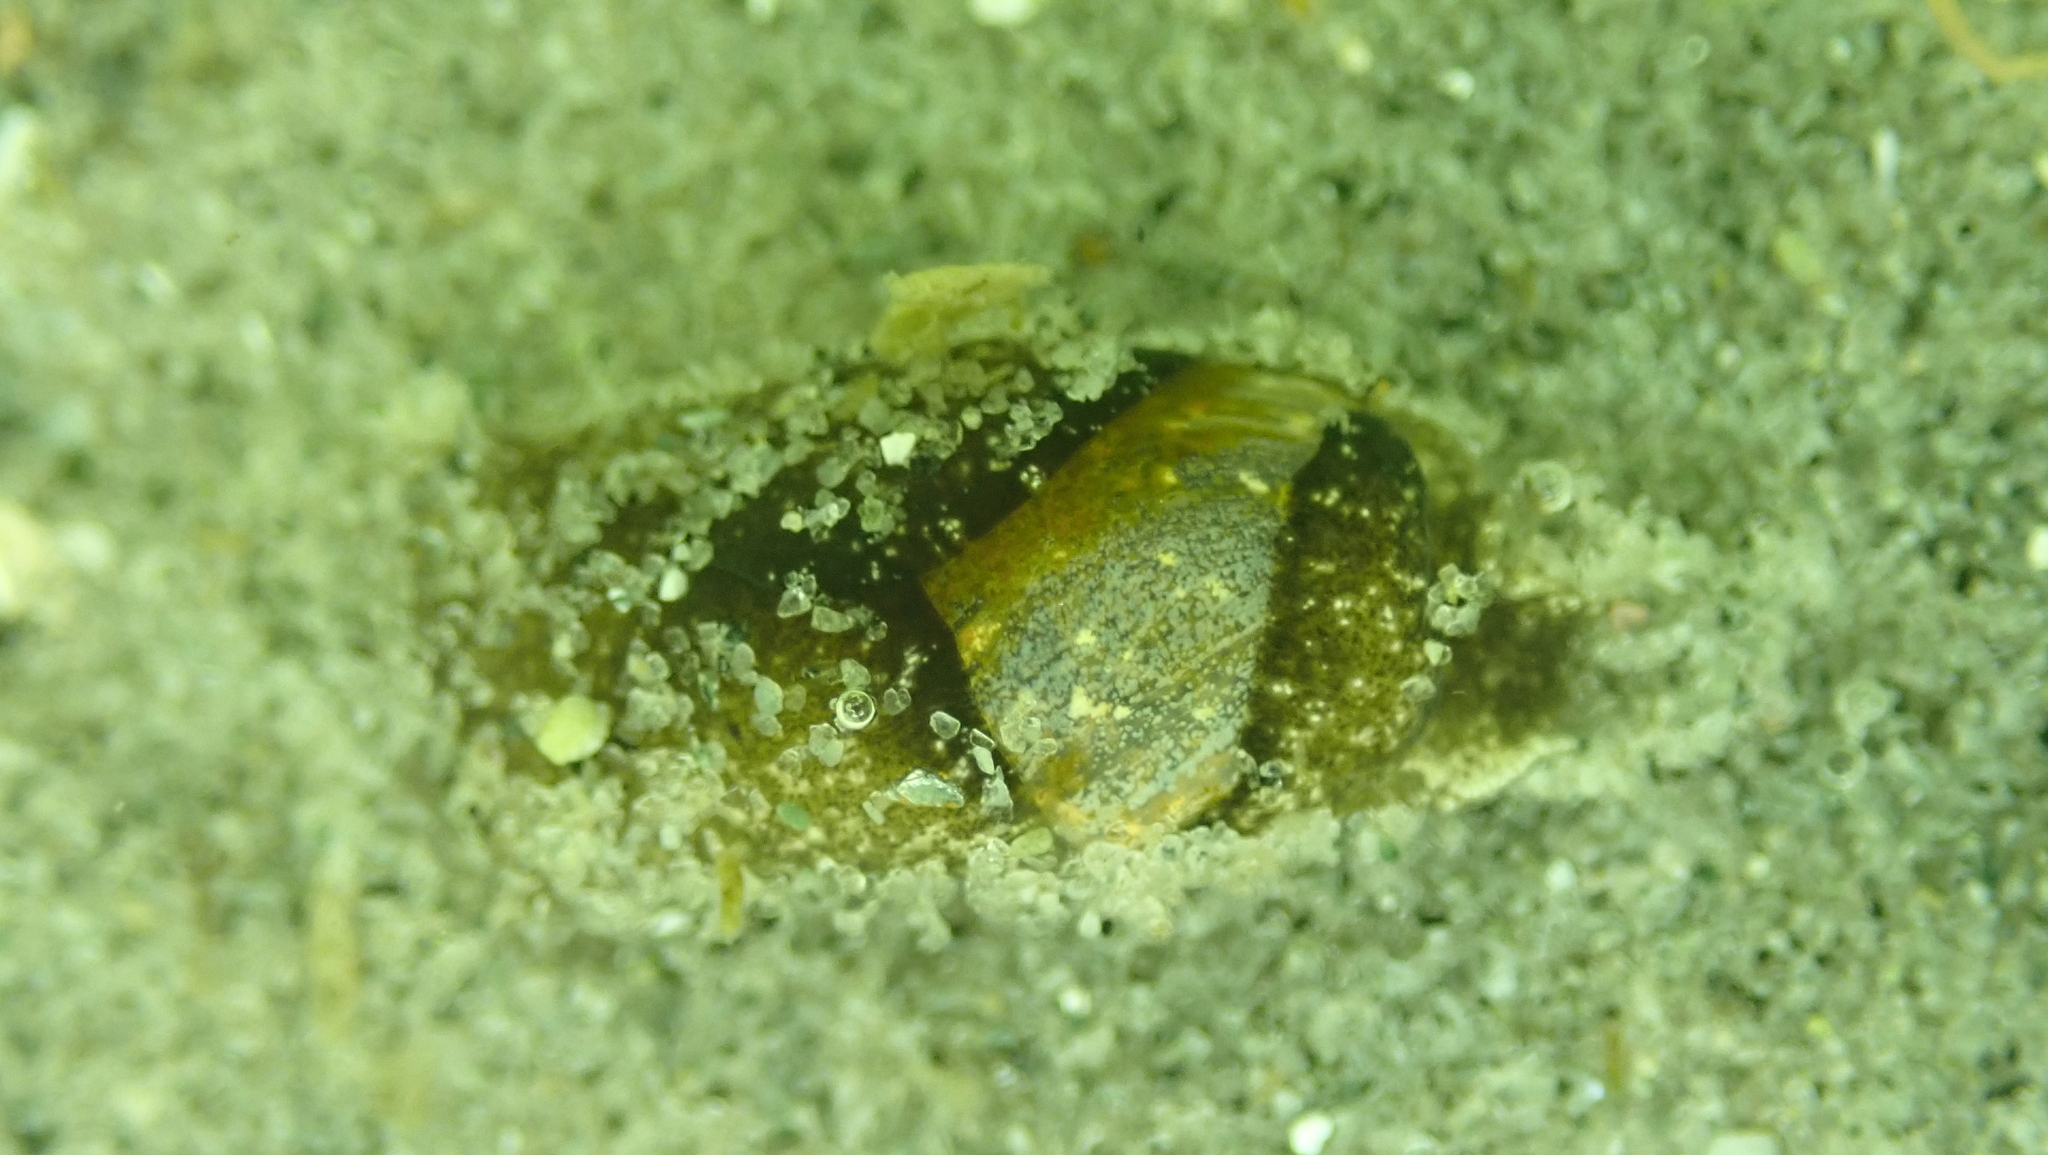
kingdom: Animalia
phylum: Mollusca
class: Gastropoda
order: Cephalaspidea
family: Haminoeidae
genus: Haminoea
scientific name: Haminoea virescens
